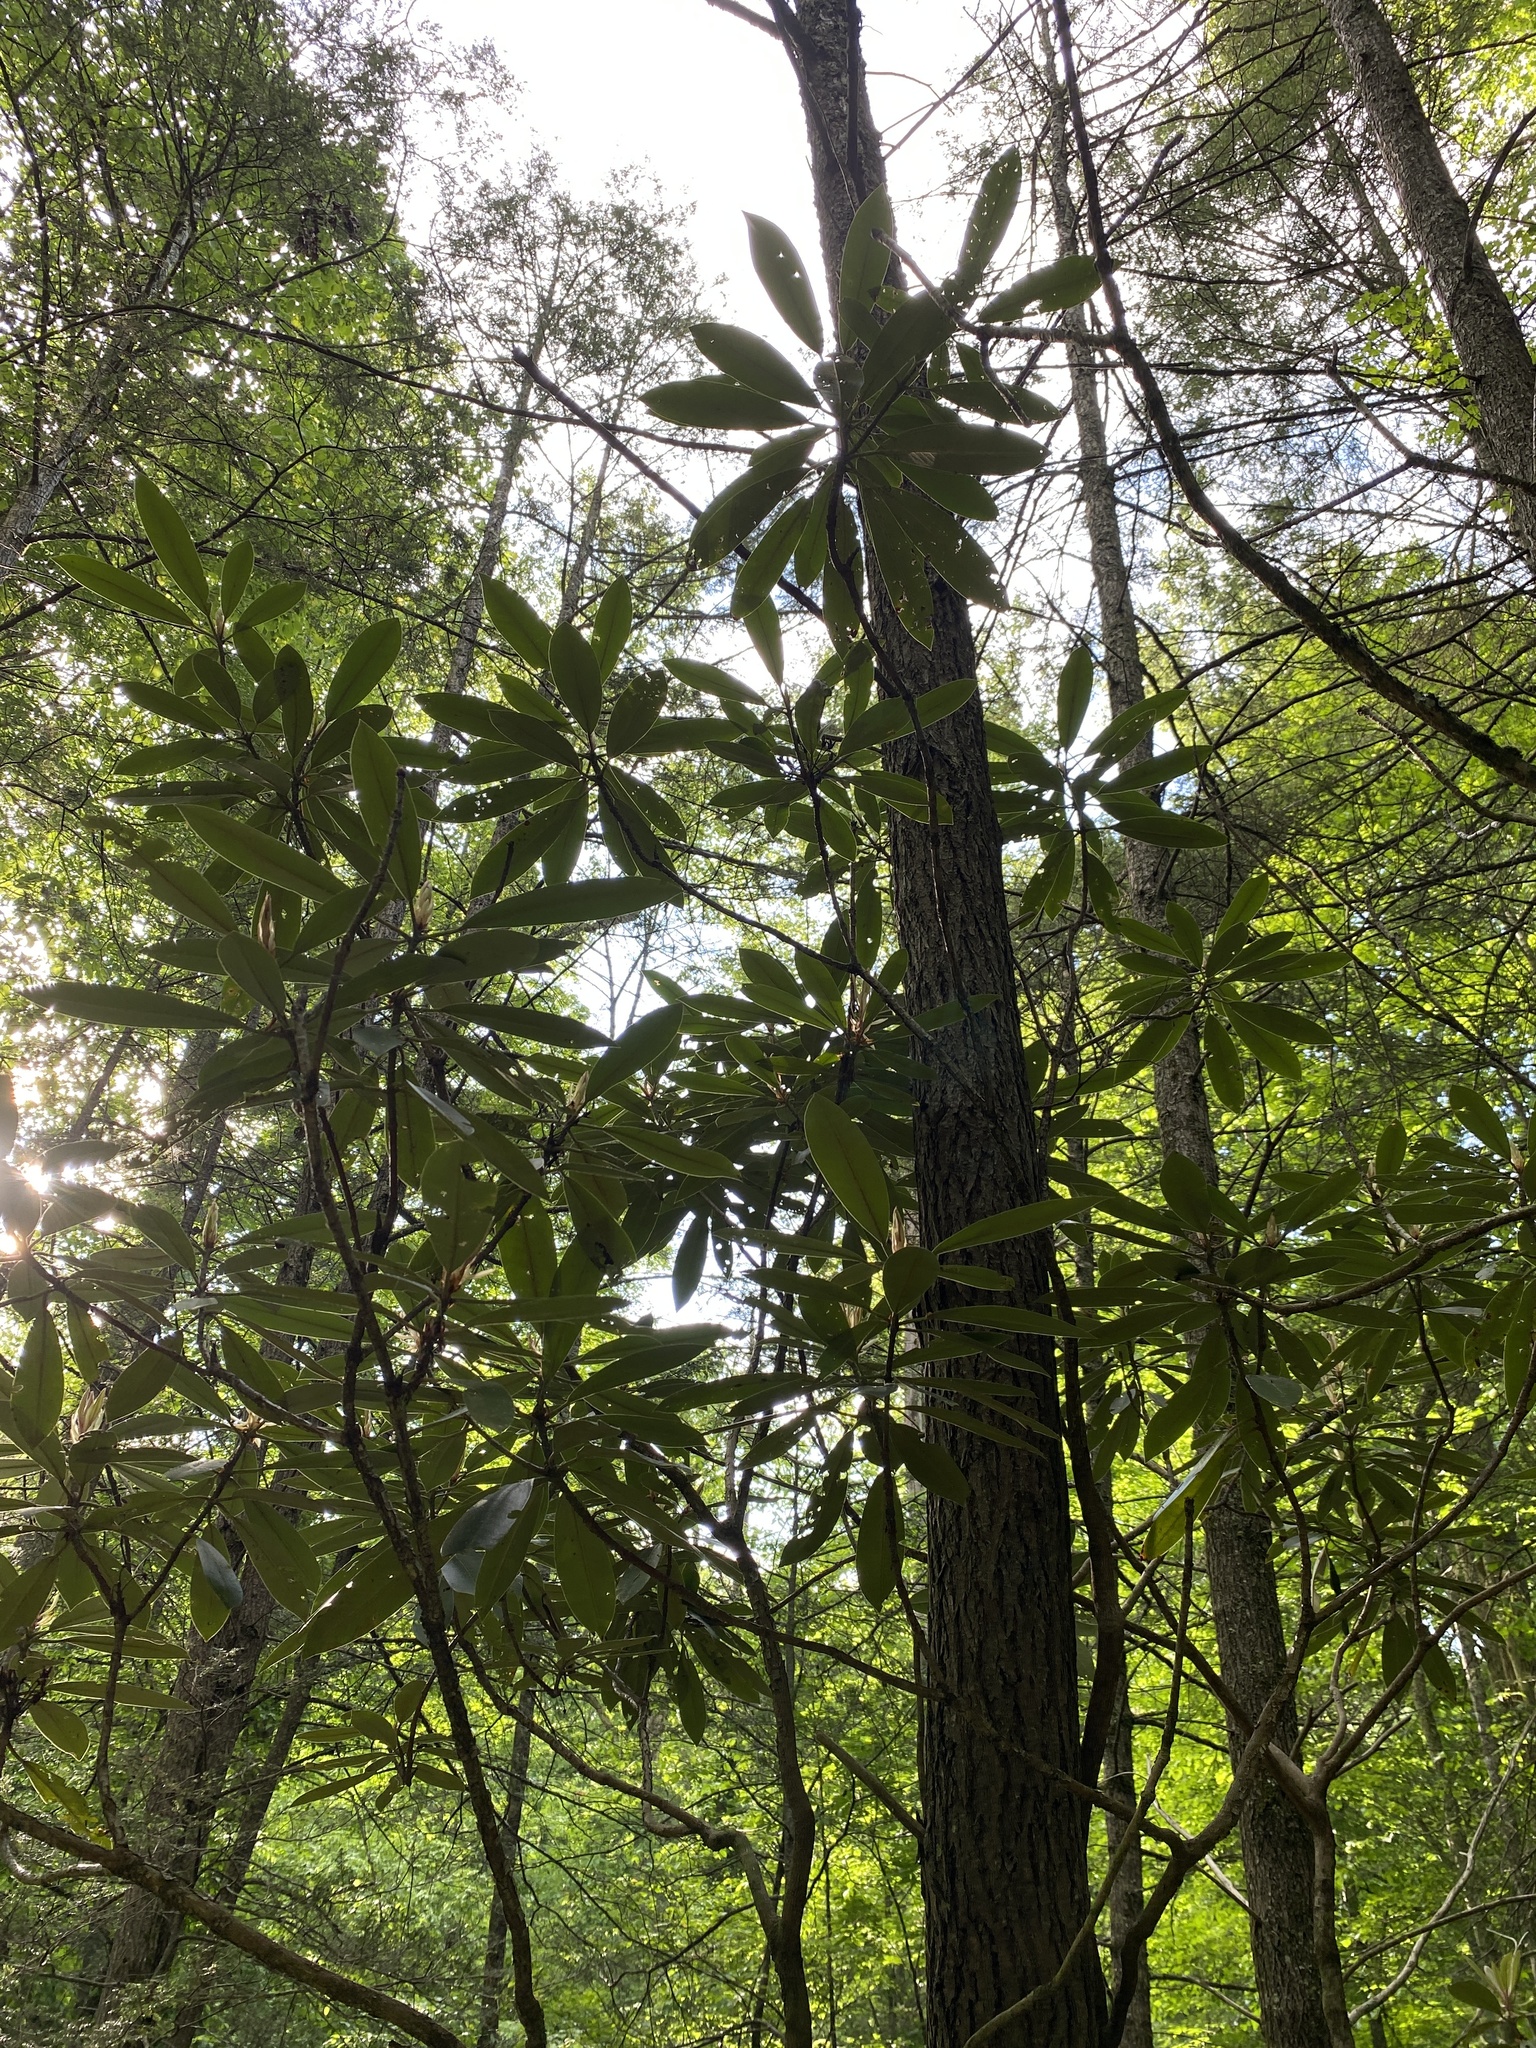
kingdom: Plantae
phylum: Tracheophyta
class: Magnoliopsida
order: Ericales
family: Ericaceae
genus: Rhododendron
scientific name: Rhododendron maximum
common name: Great rhododendron
